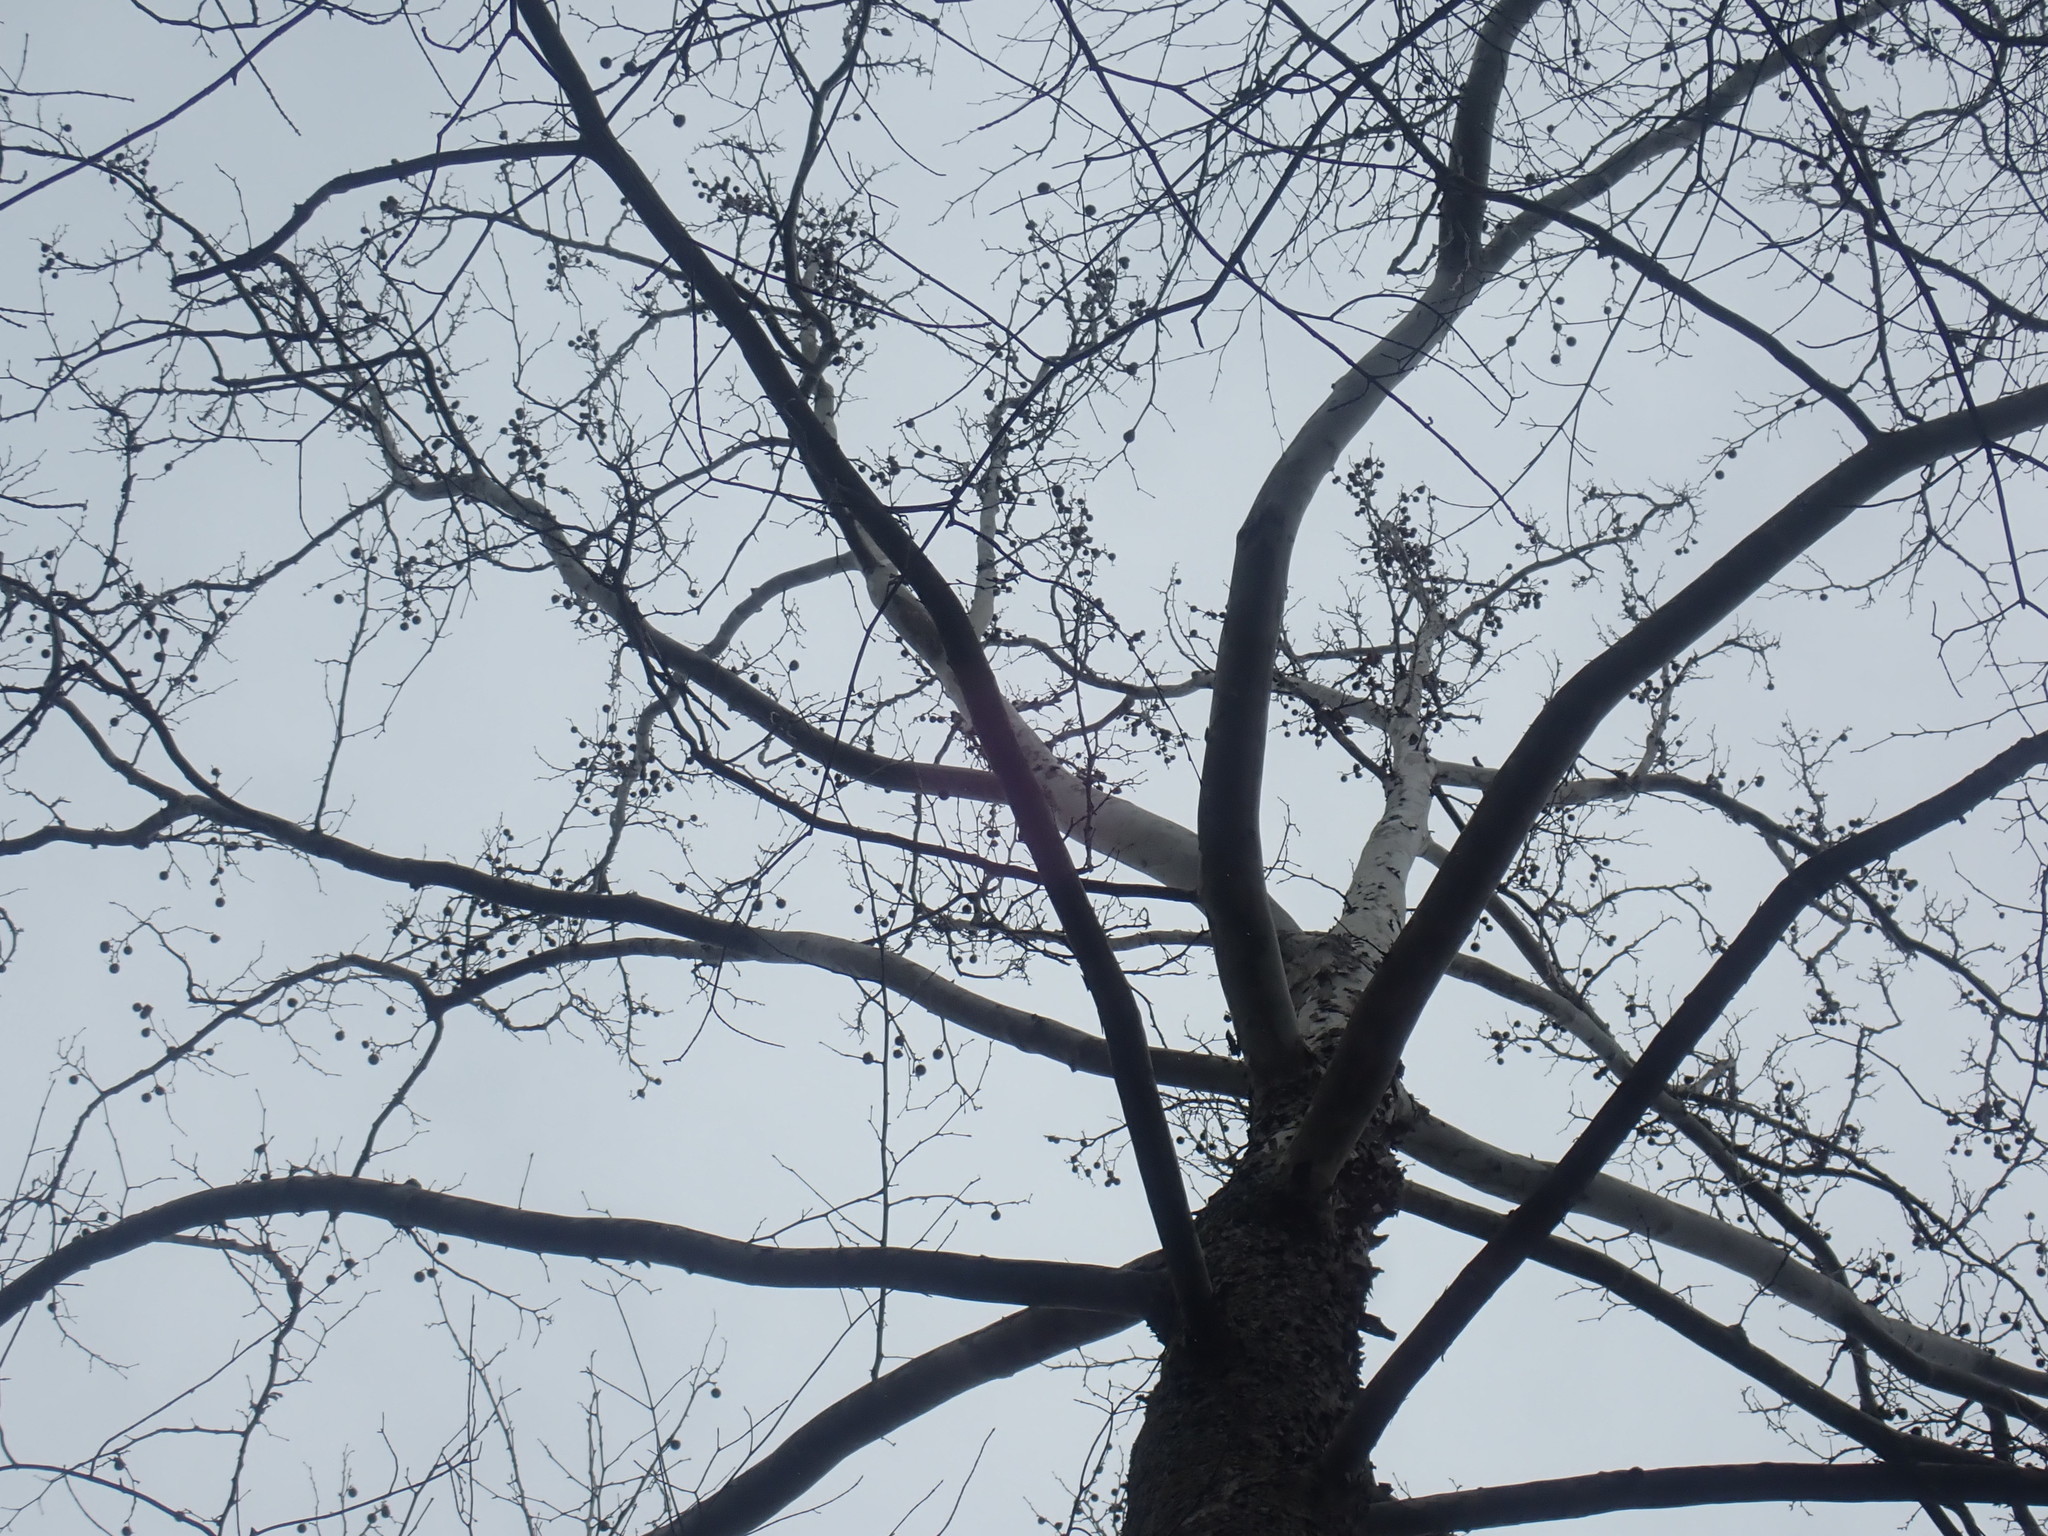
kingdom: Plantae
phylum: Tracheophyta
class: Magnoliopsida
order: Proteales
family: Platanaceae
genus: Platanus
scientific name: Platanus occidentalis
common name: American sycamore
